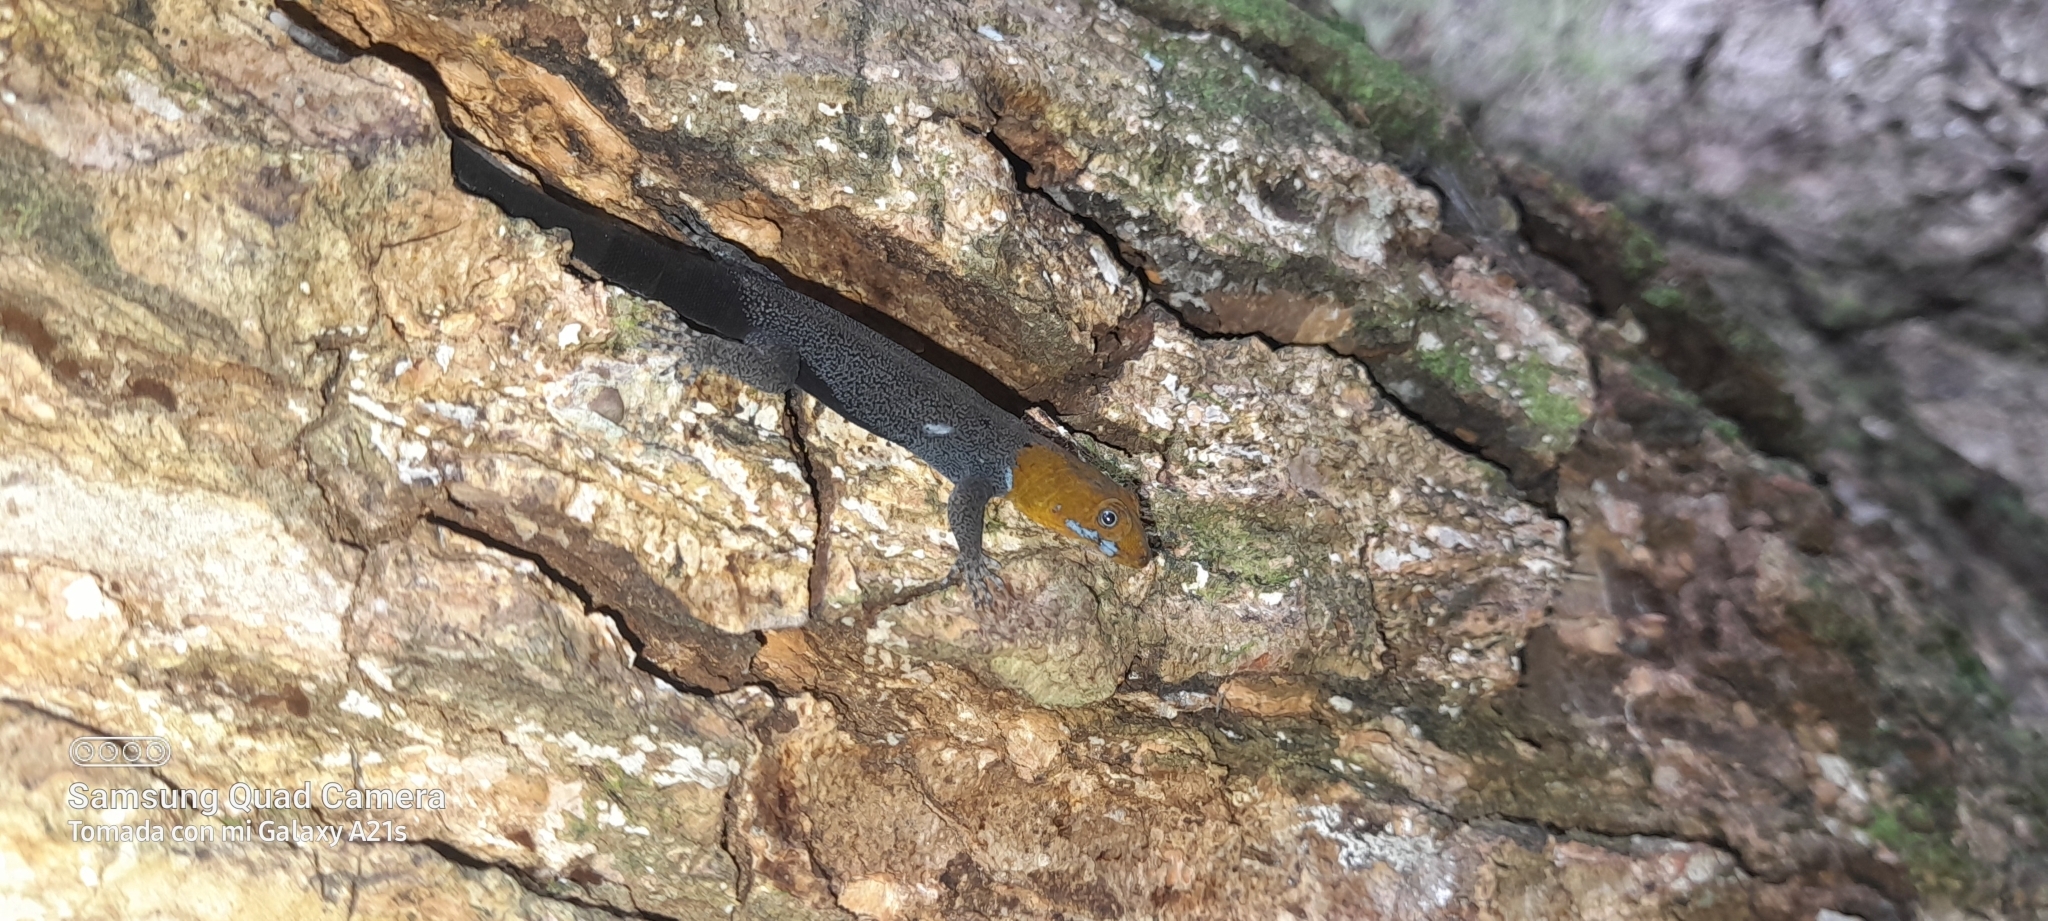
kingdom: Animalia
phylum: Chordata
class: Squamata
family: Sphaerodactylidae
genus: Gonatodes
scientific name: Gonatodes albogularis
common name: Yellow-headed gecko
